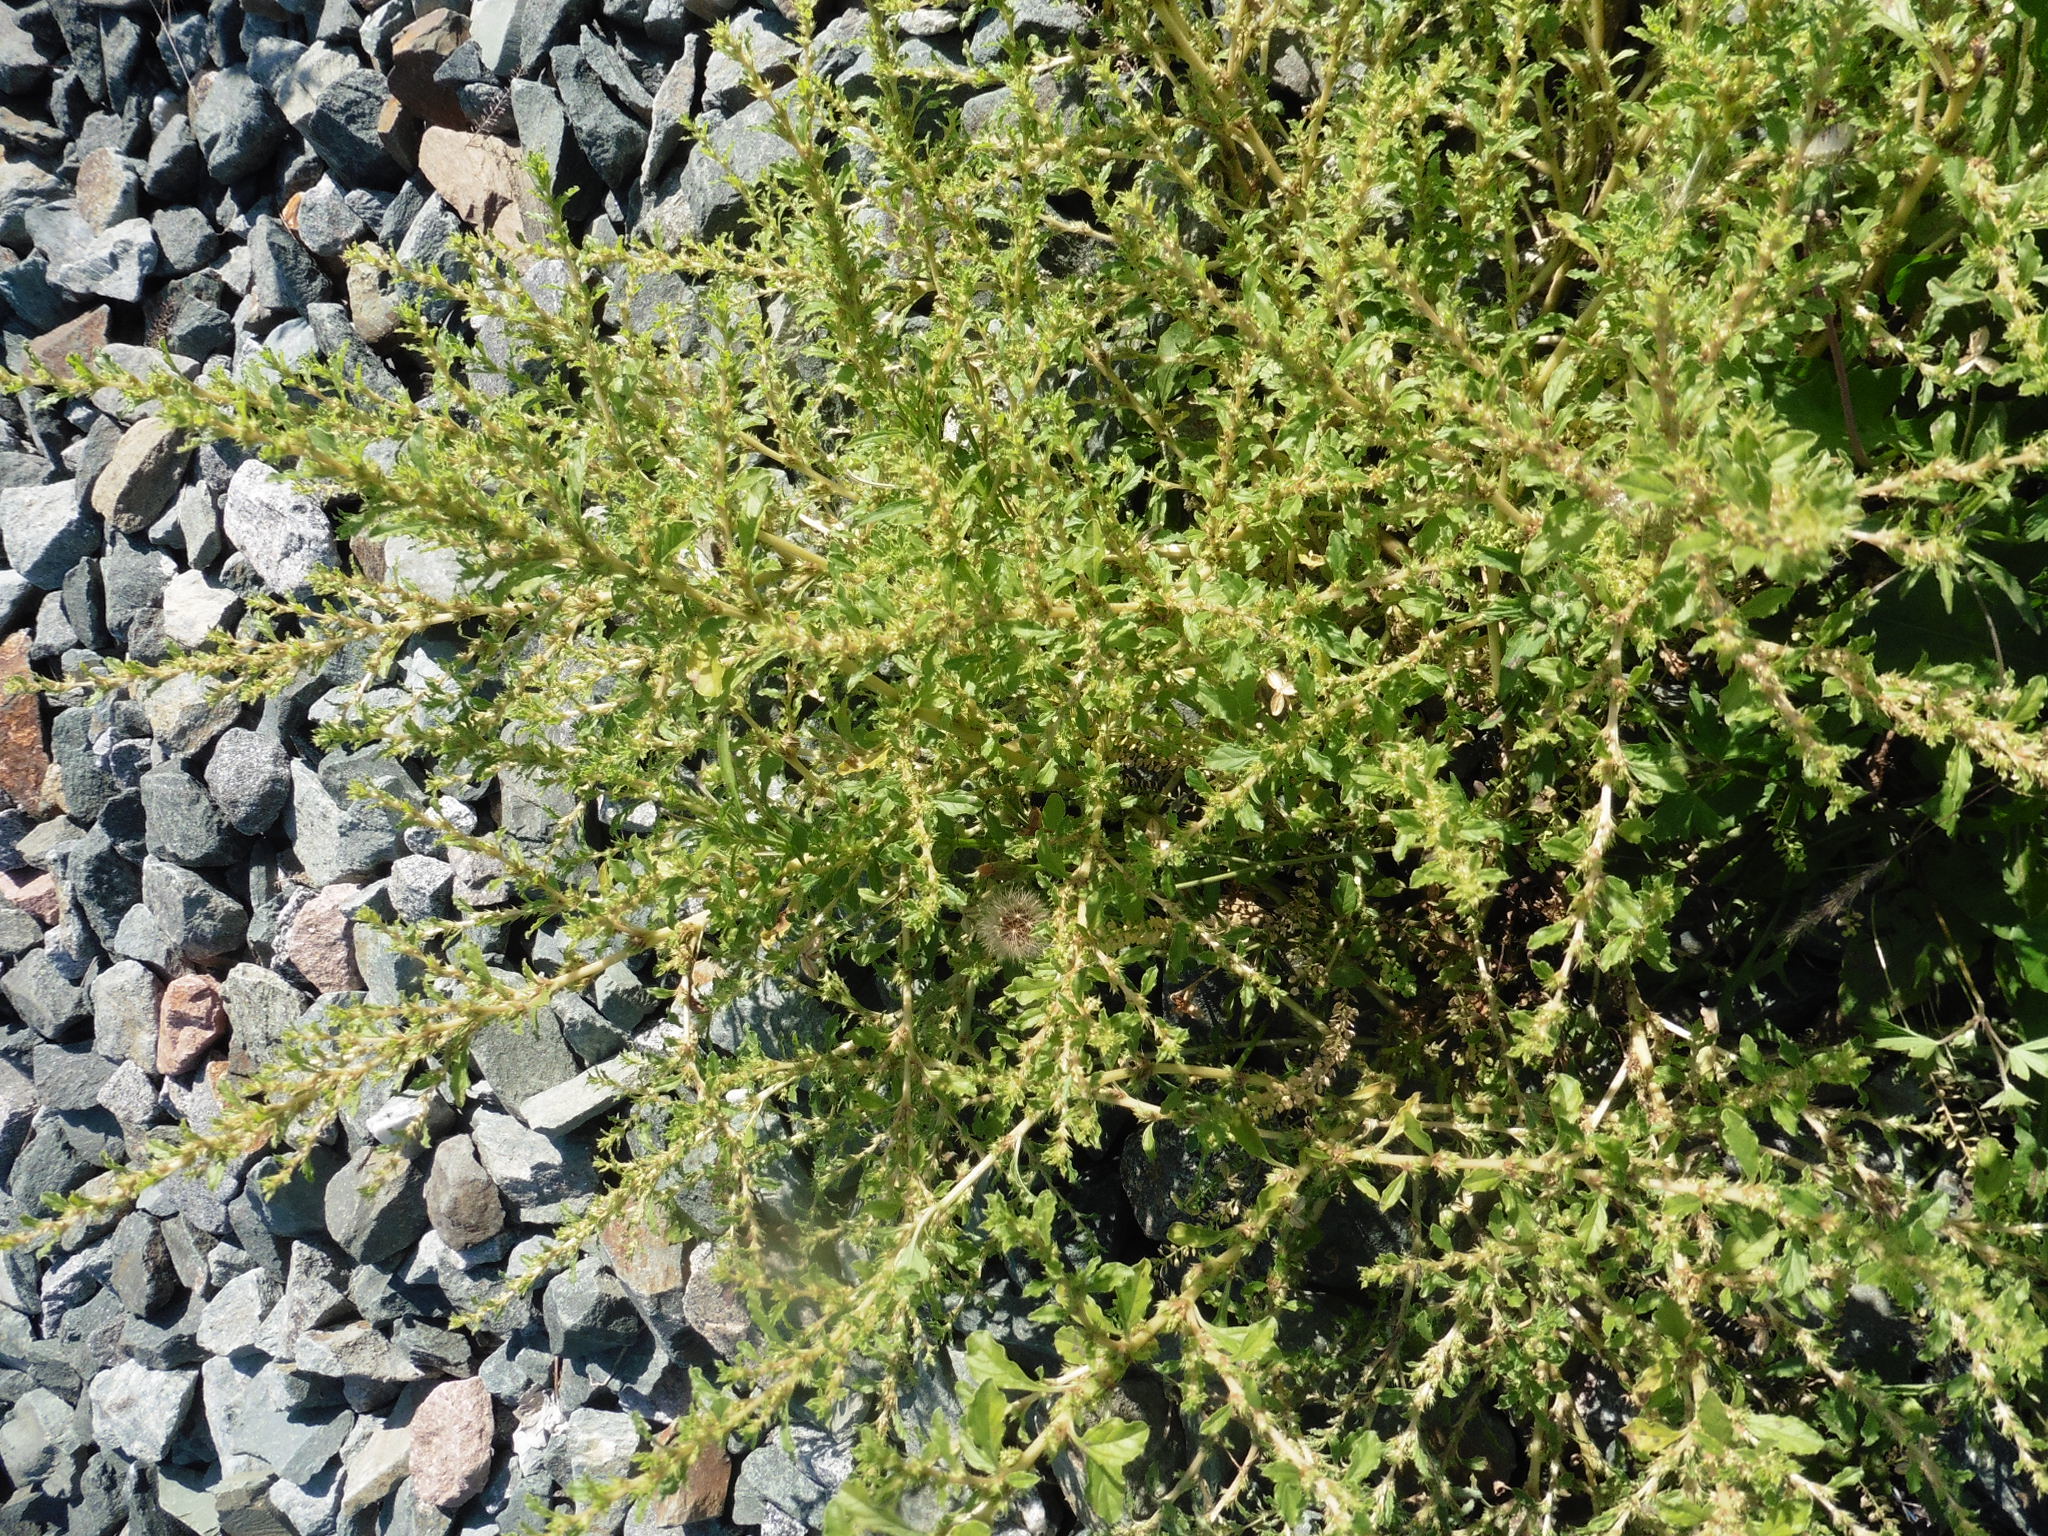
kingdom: Plantae
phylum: Tracheophyta
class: Magnoliopsida
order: Caryophyllales
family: Amaranthaceae
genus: Amaranthus
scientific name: Amaranthus albus
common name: White pigweed
